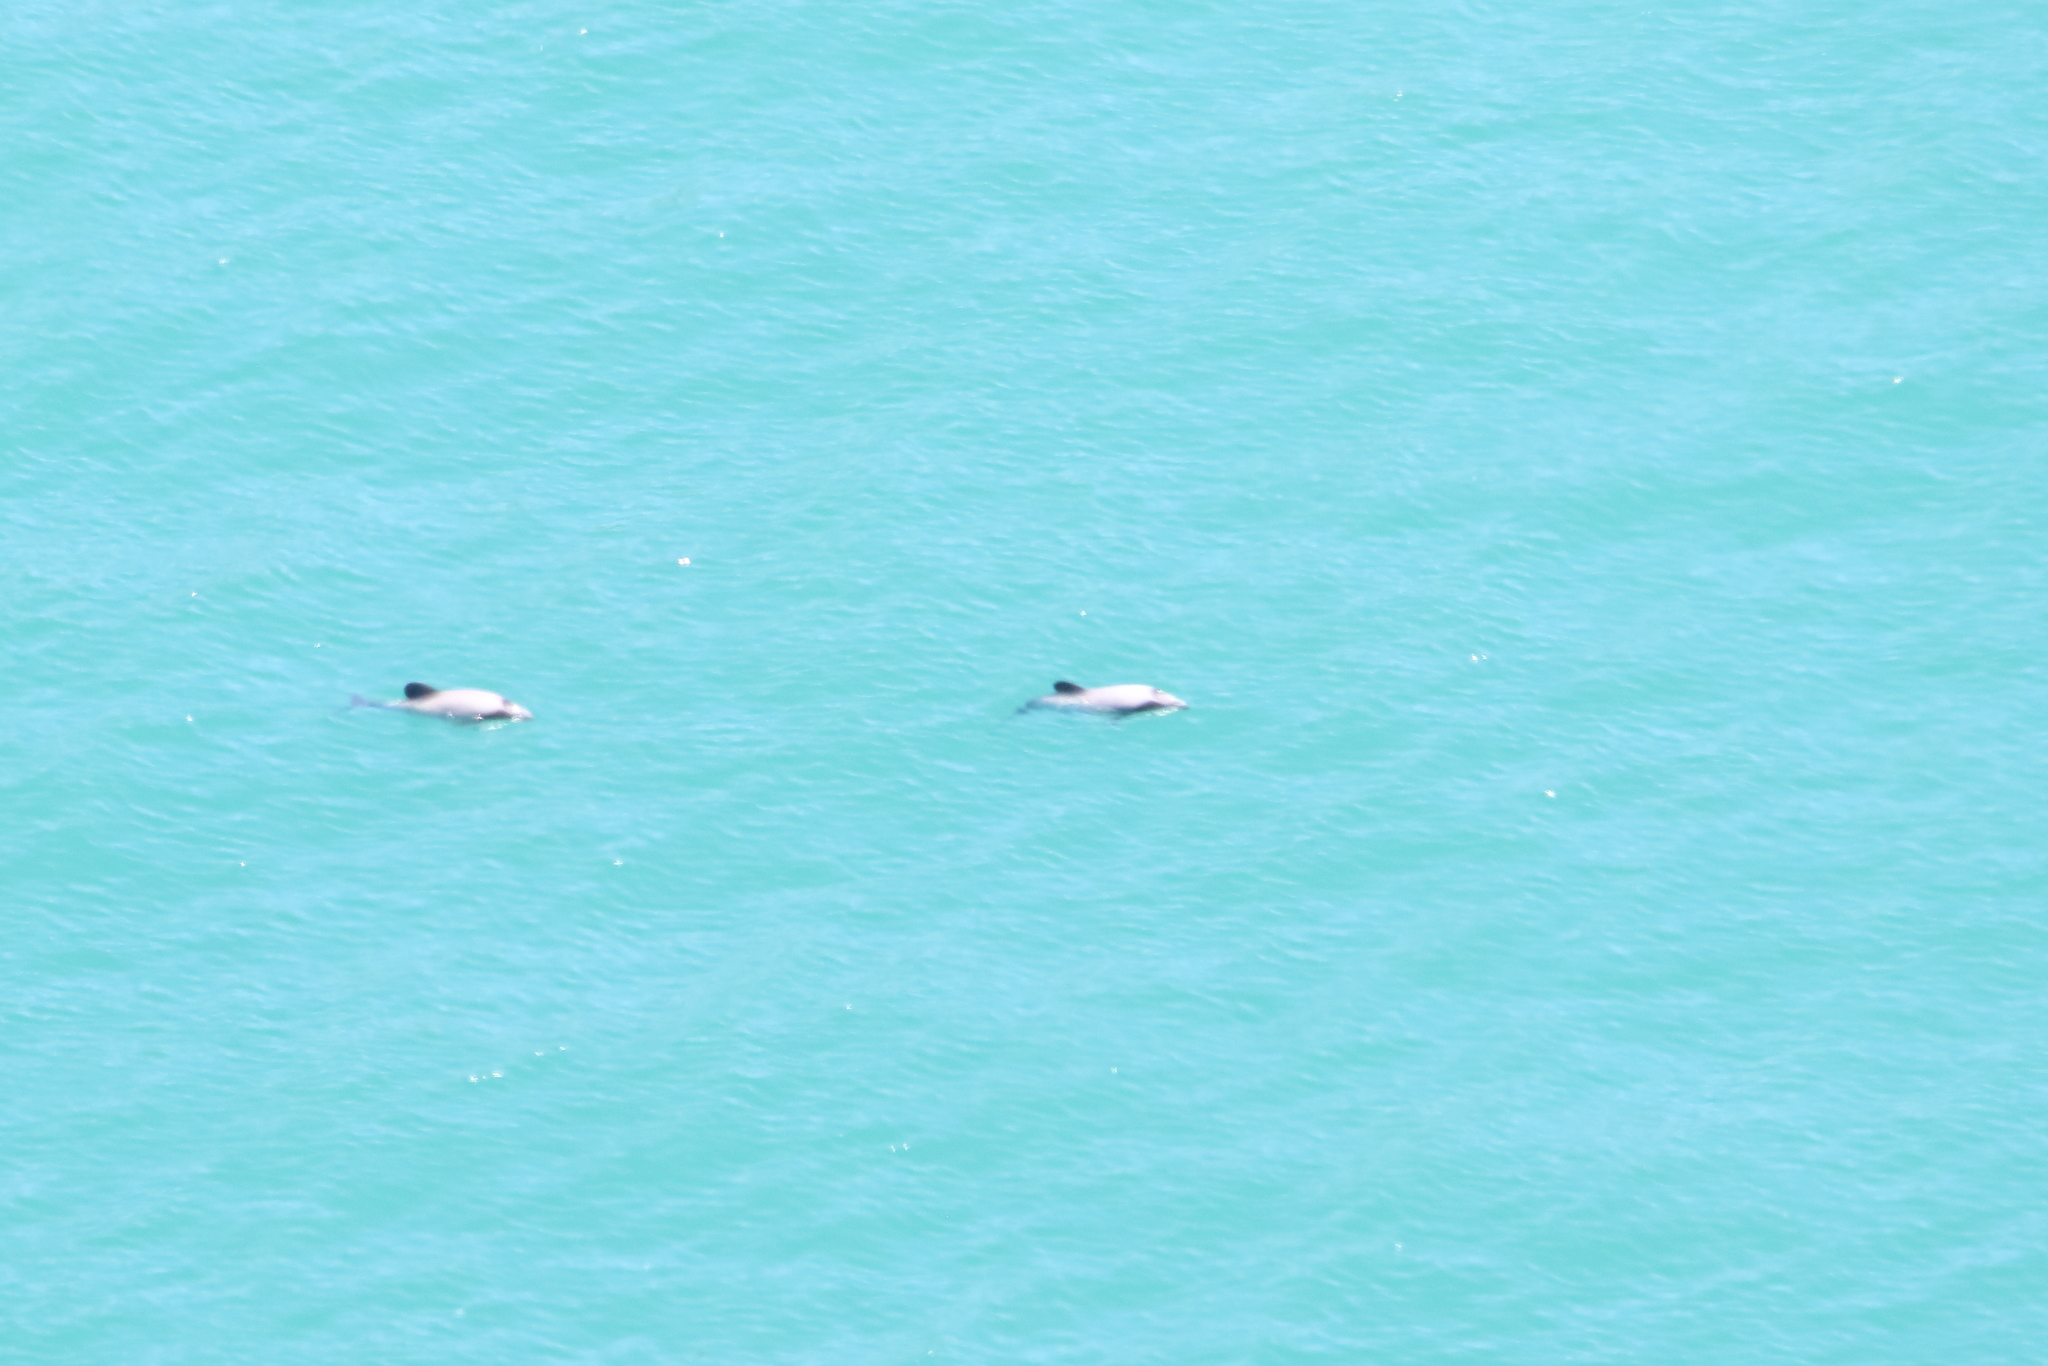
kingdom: Animalia
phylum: Chordata
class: Mammalia
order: Cetacea
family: Delphinidae
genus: Cephalorhynchus
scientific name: Cephalorhynchus hectori
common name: Hector's dolphin
